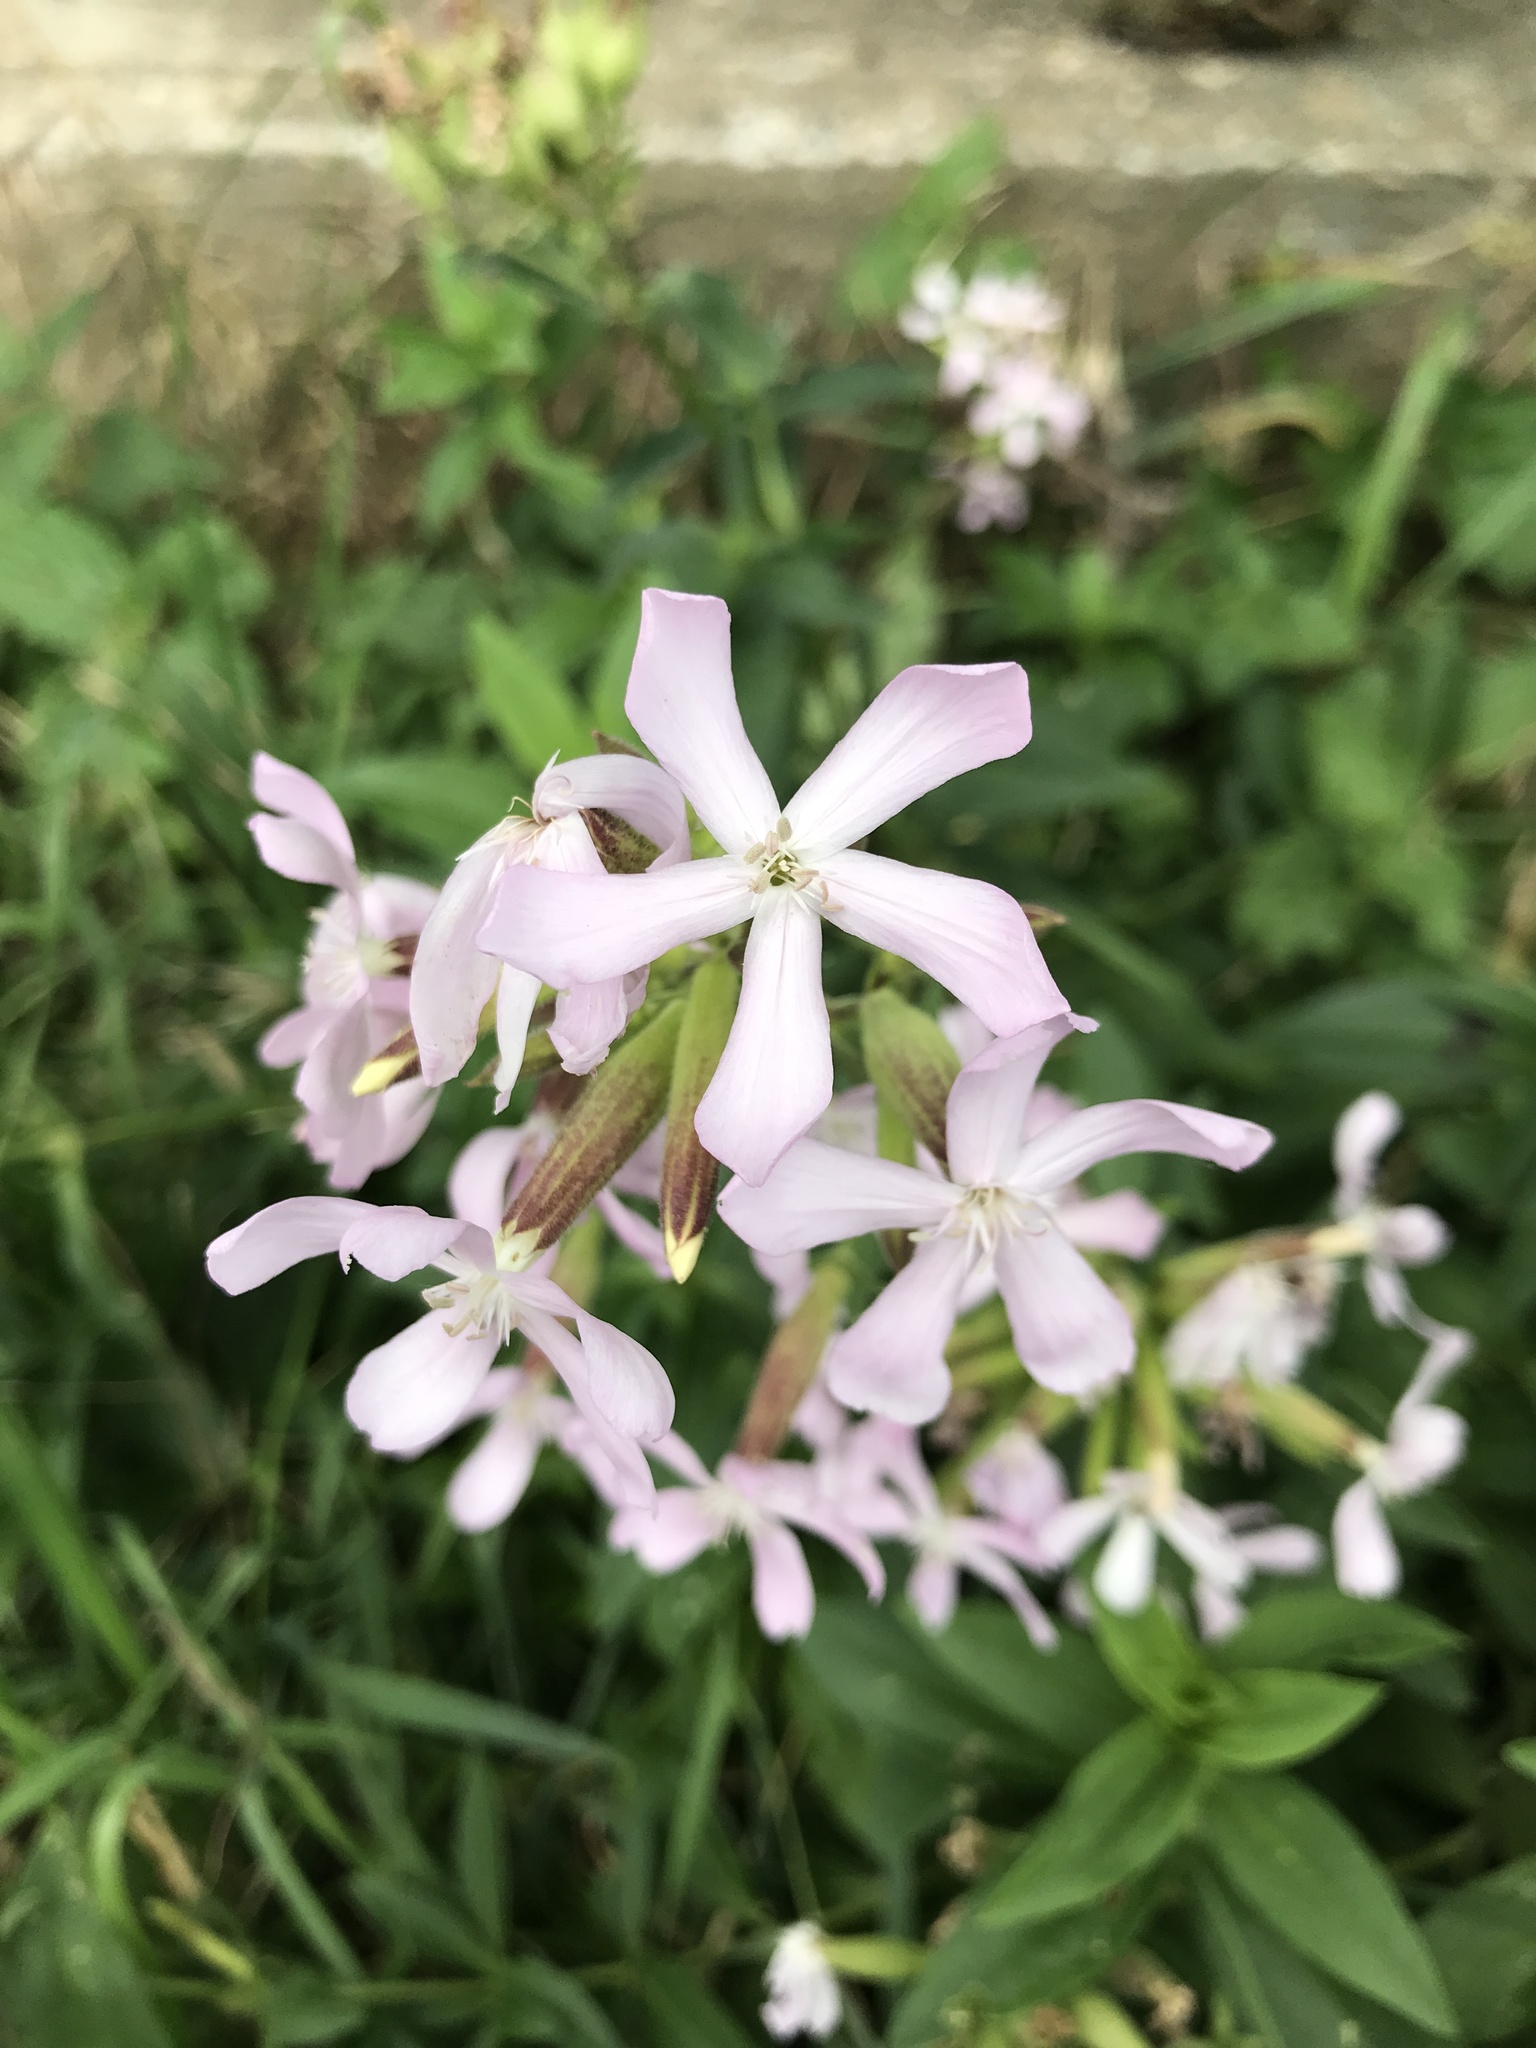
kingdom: Plantae
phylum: Tracheophyta
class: Magnoliopsida
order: Caryophyllales
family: Caryophyllaceae
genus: Saponaria
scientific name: Saponaria officinalis
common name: Soapwort
